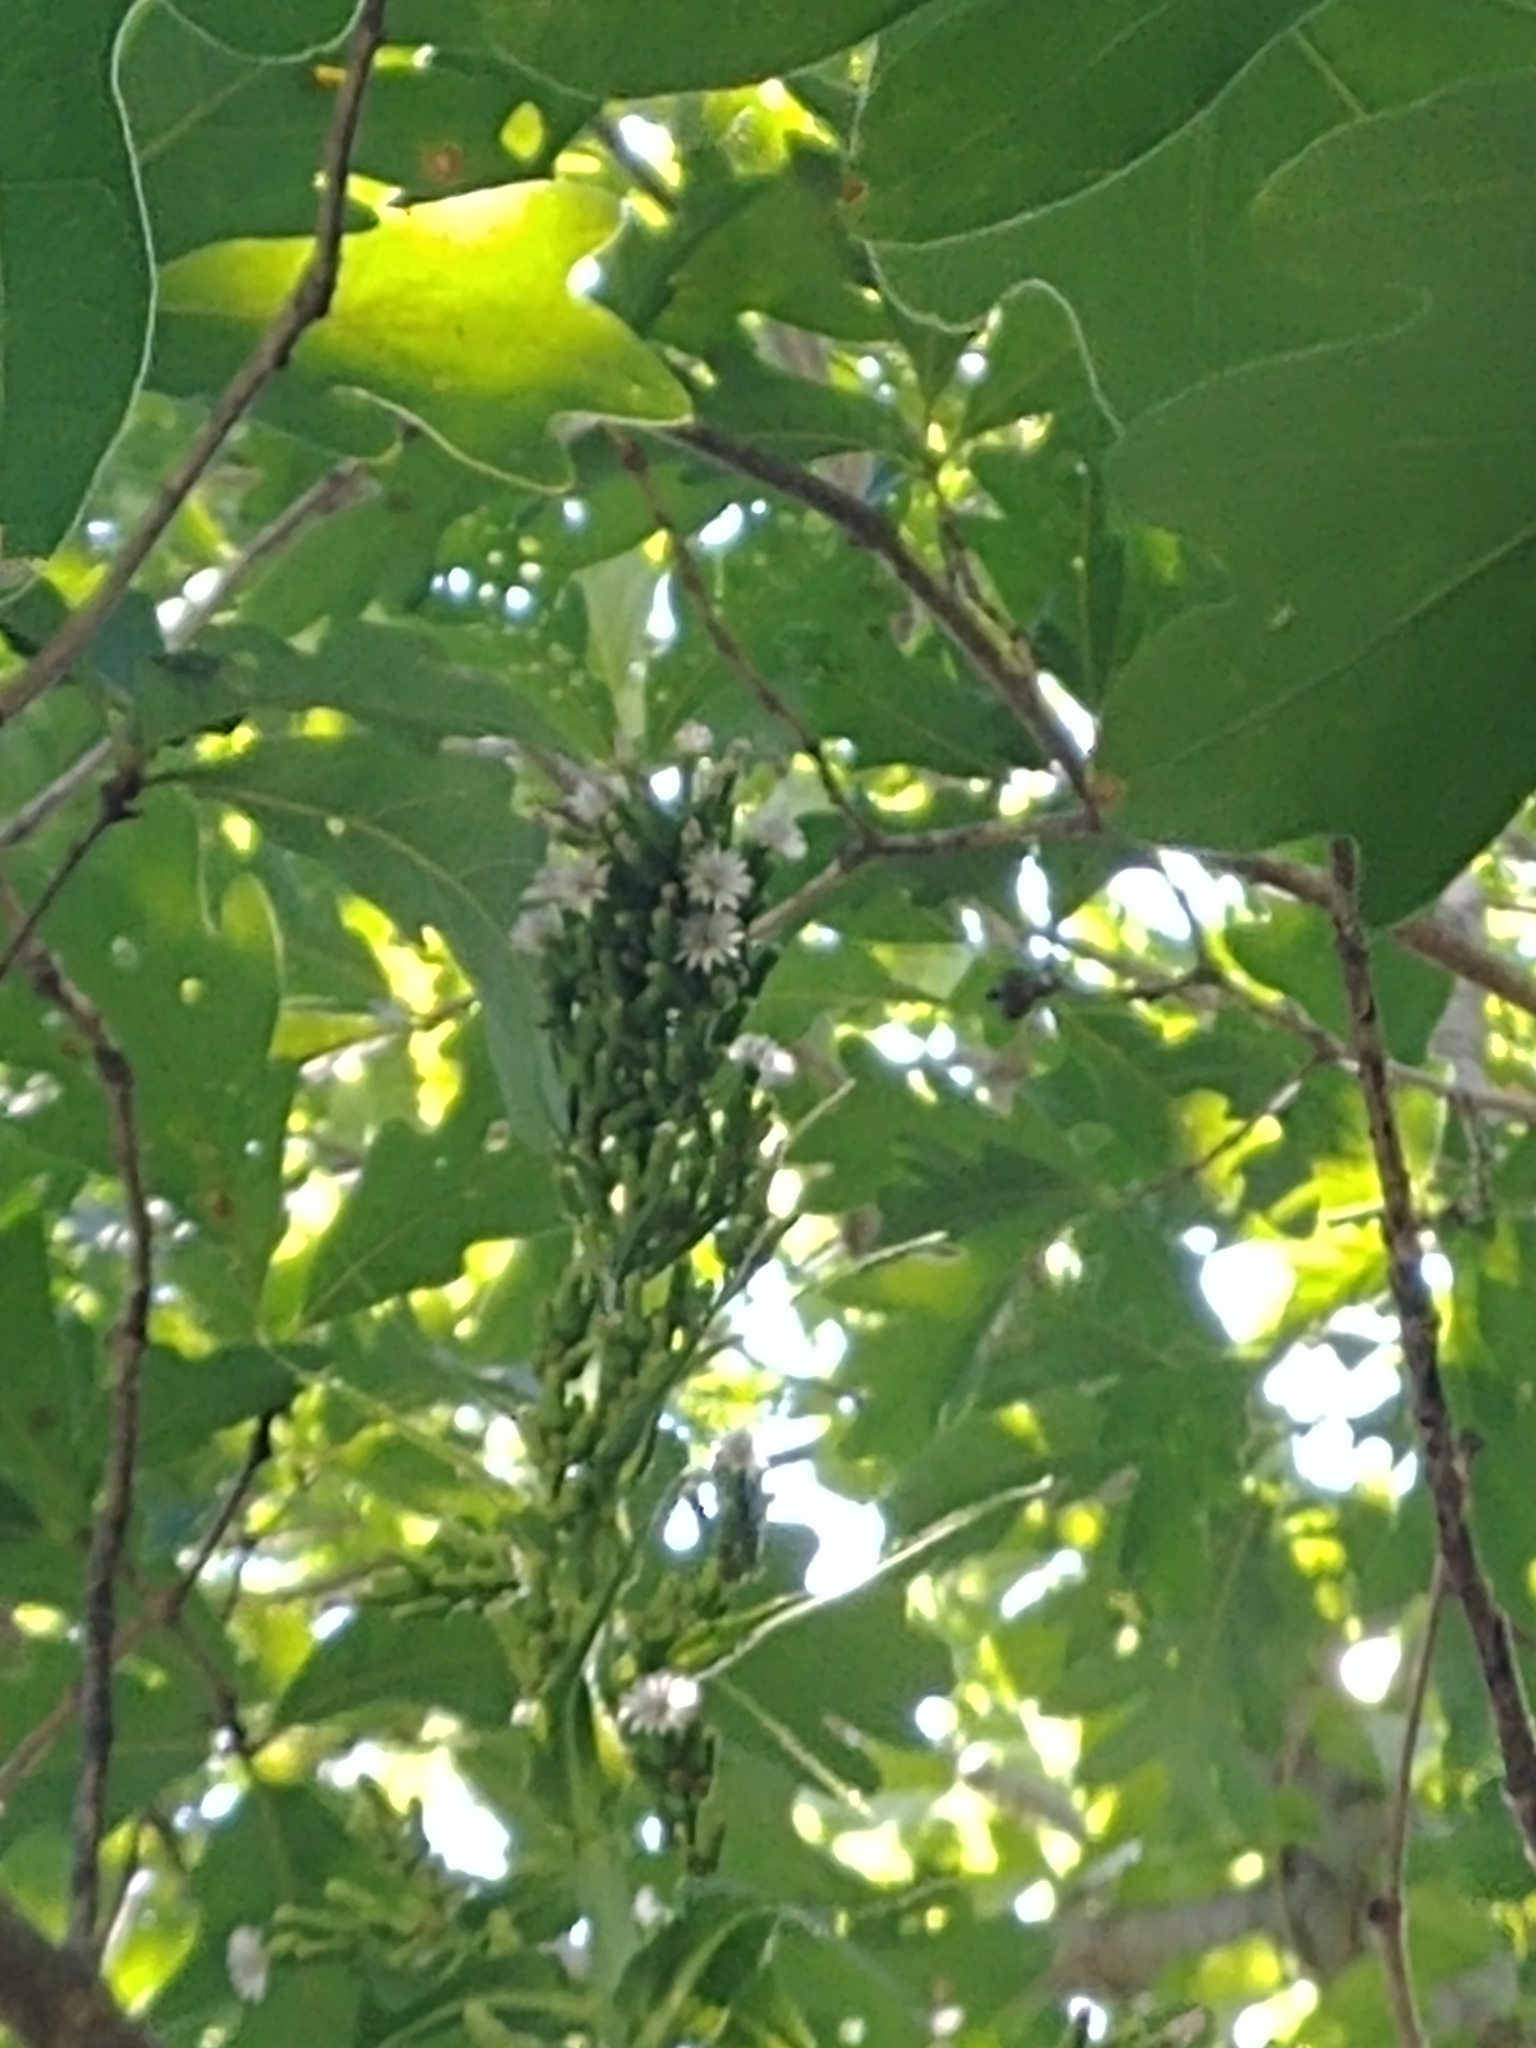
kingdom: Plantae
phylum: Tracheophyta
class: Magnoliopsida
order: Asterales
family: Asteraceae
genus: Lactuca
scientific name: Lactuca biennis
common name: Blue wood lettuce
